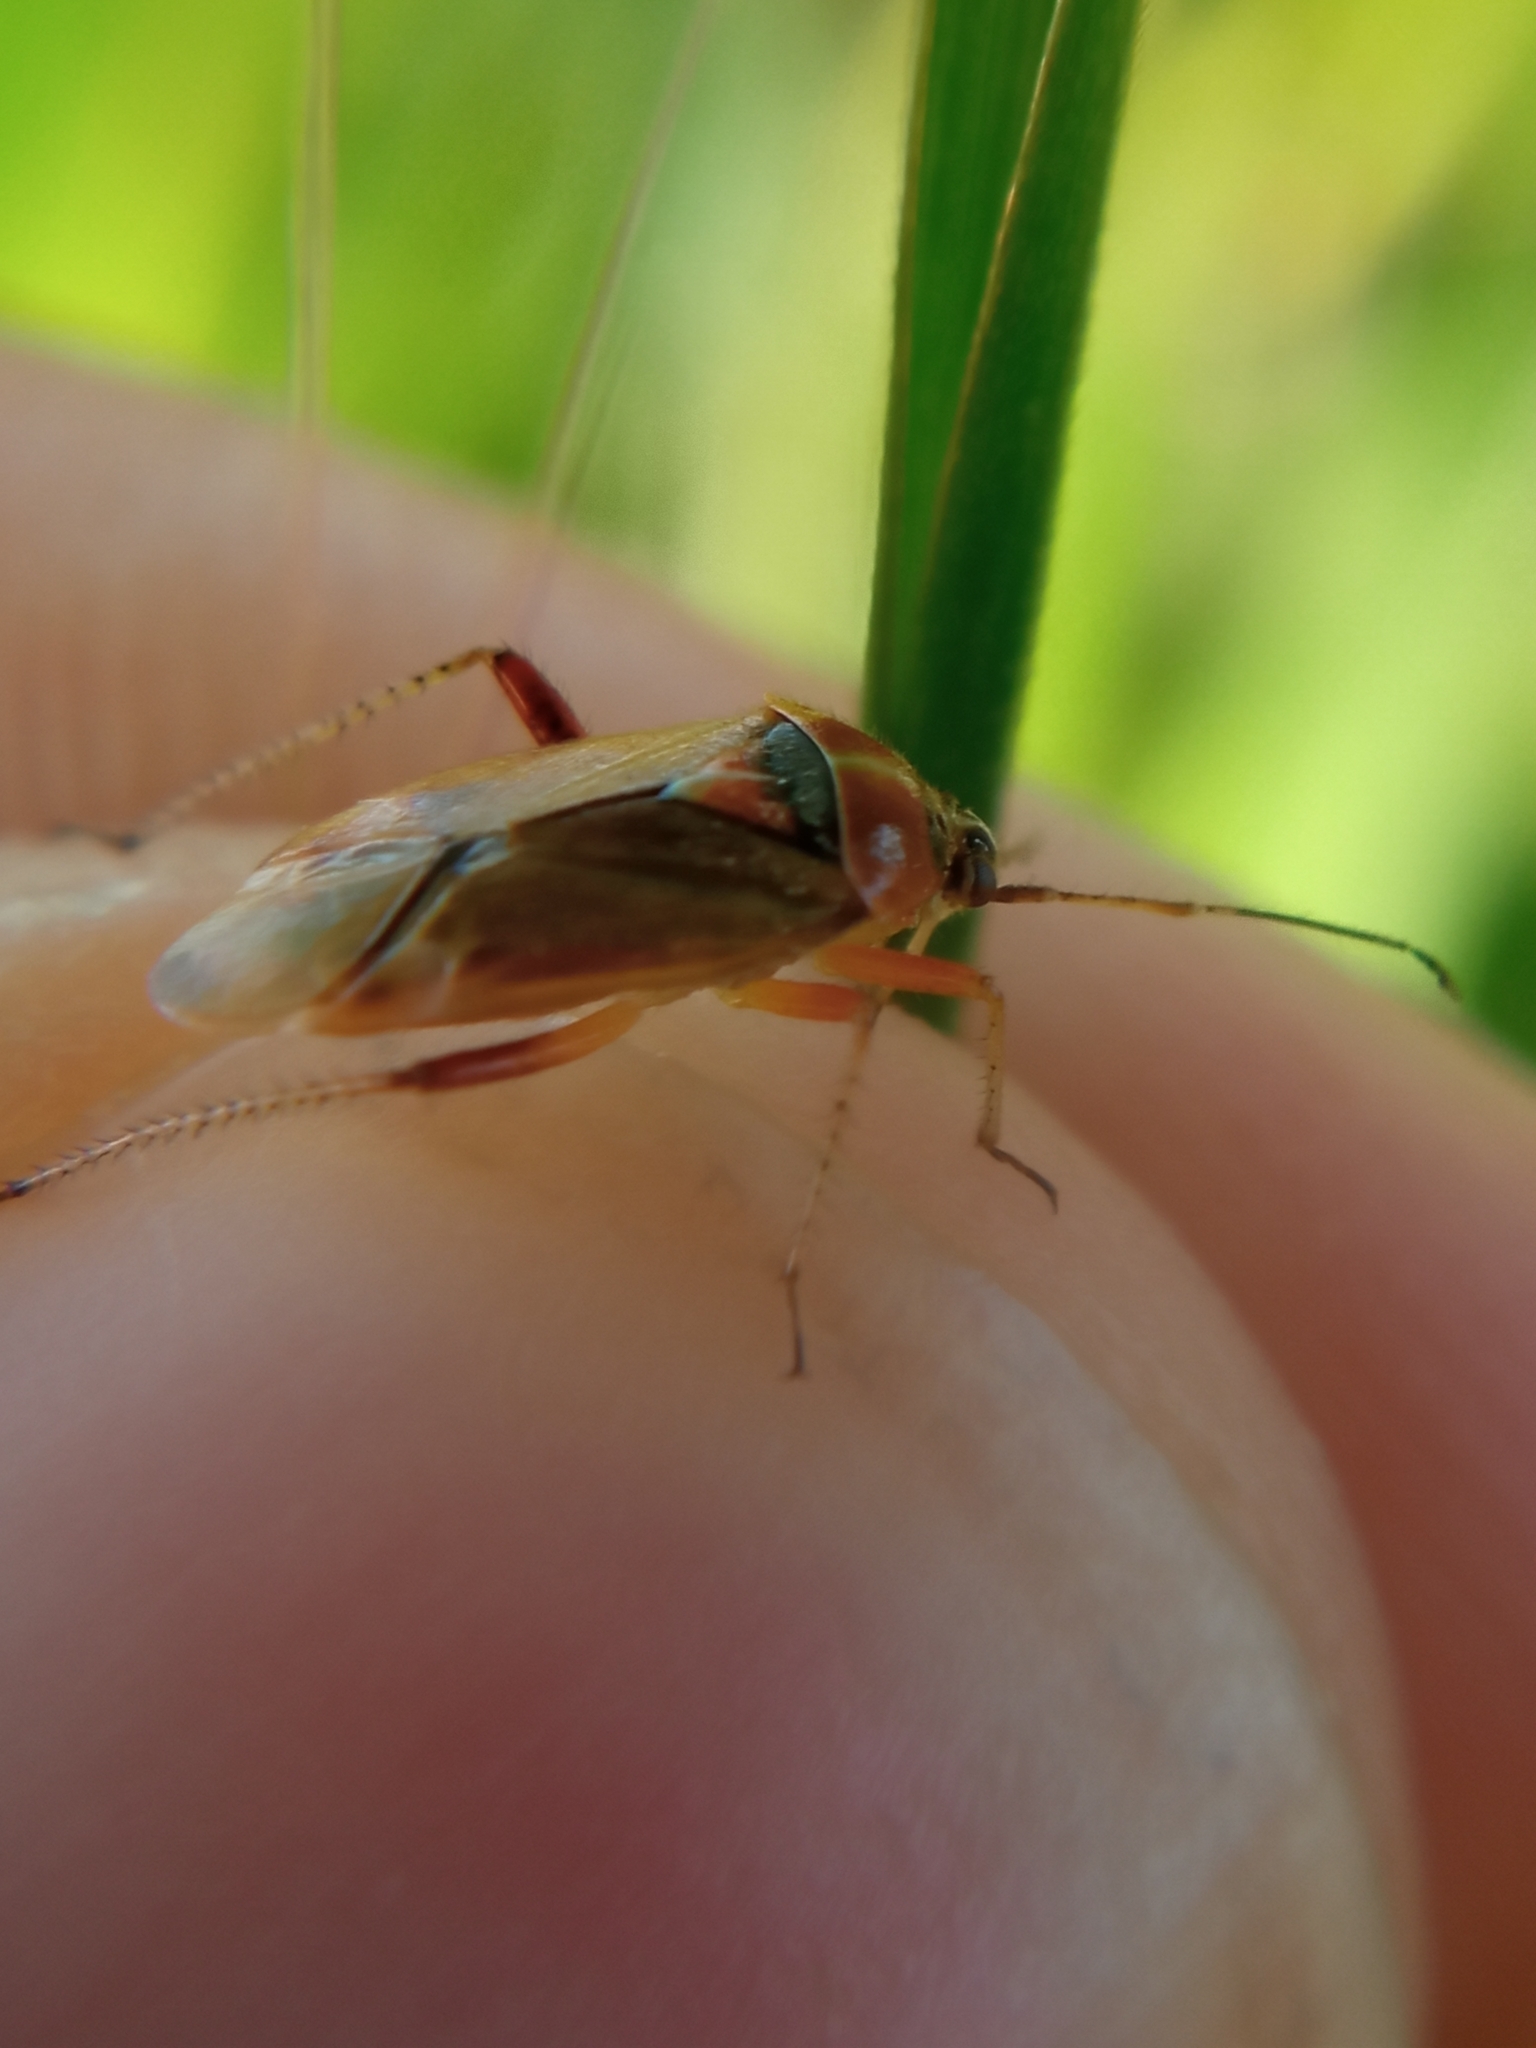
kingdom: Animalia
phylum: Arthropoda
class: Insecta
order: Hemiptera
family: Miridae
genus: Harpocera
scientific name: Harpocera thoracica
